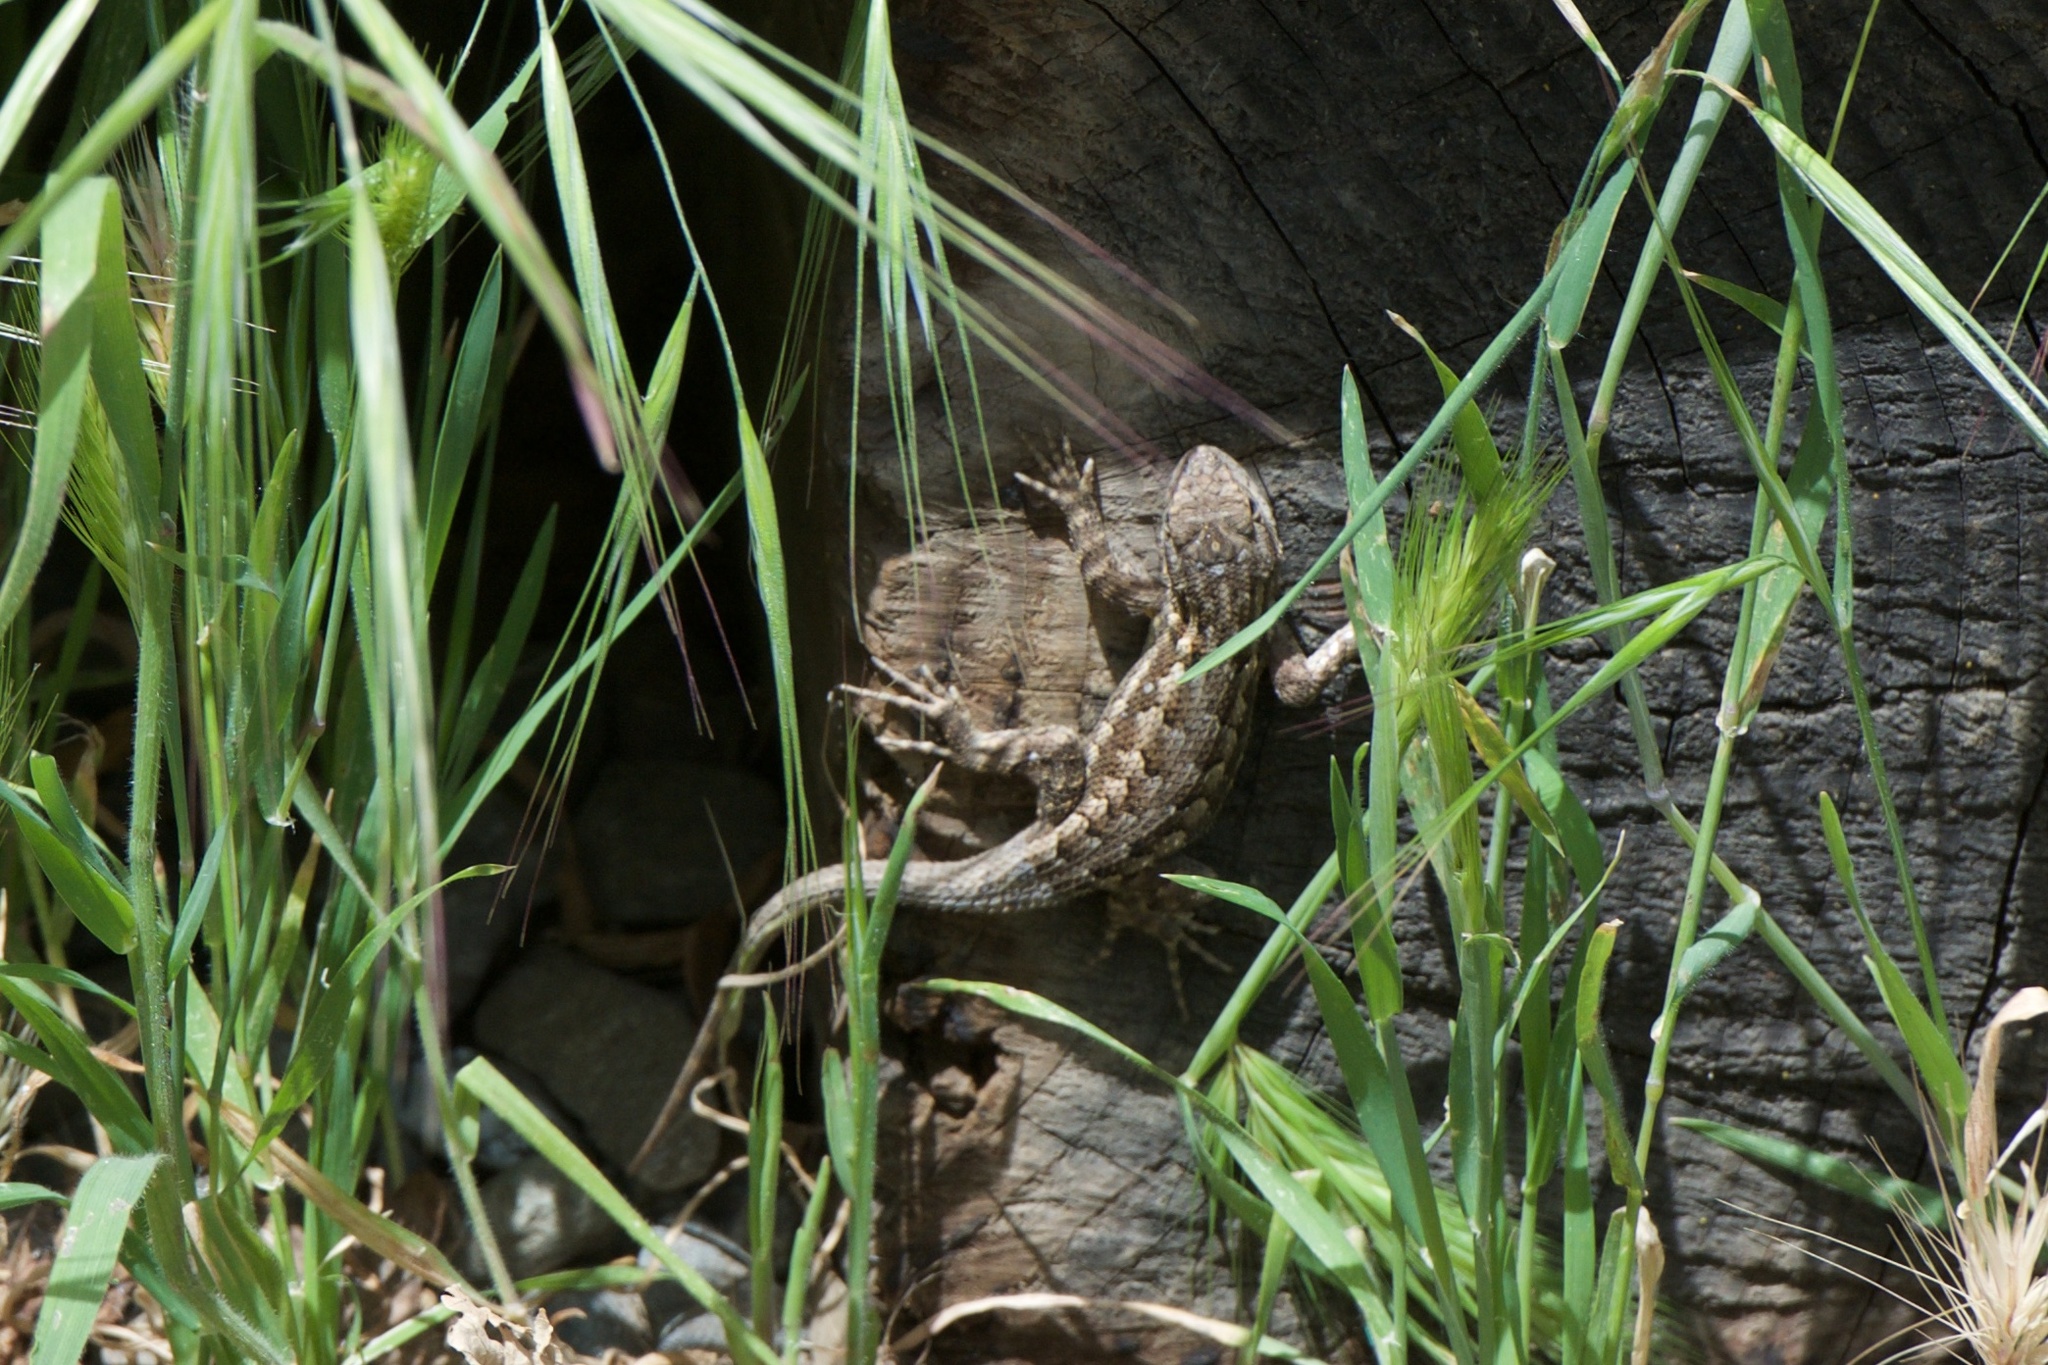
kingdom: Animalia
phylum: Chordata
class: Squamata
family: Phrynosomatidae
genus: Sceloporus
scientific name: Sceloporus occidentalis
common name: Western fence lizard
